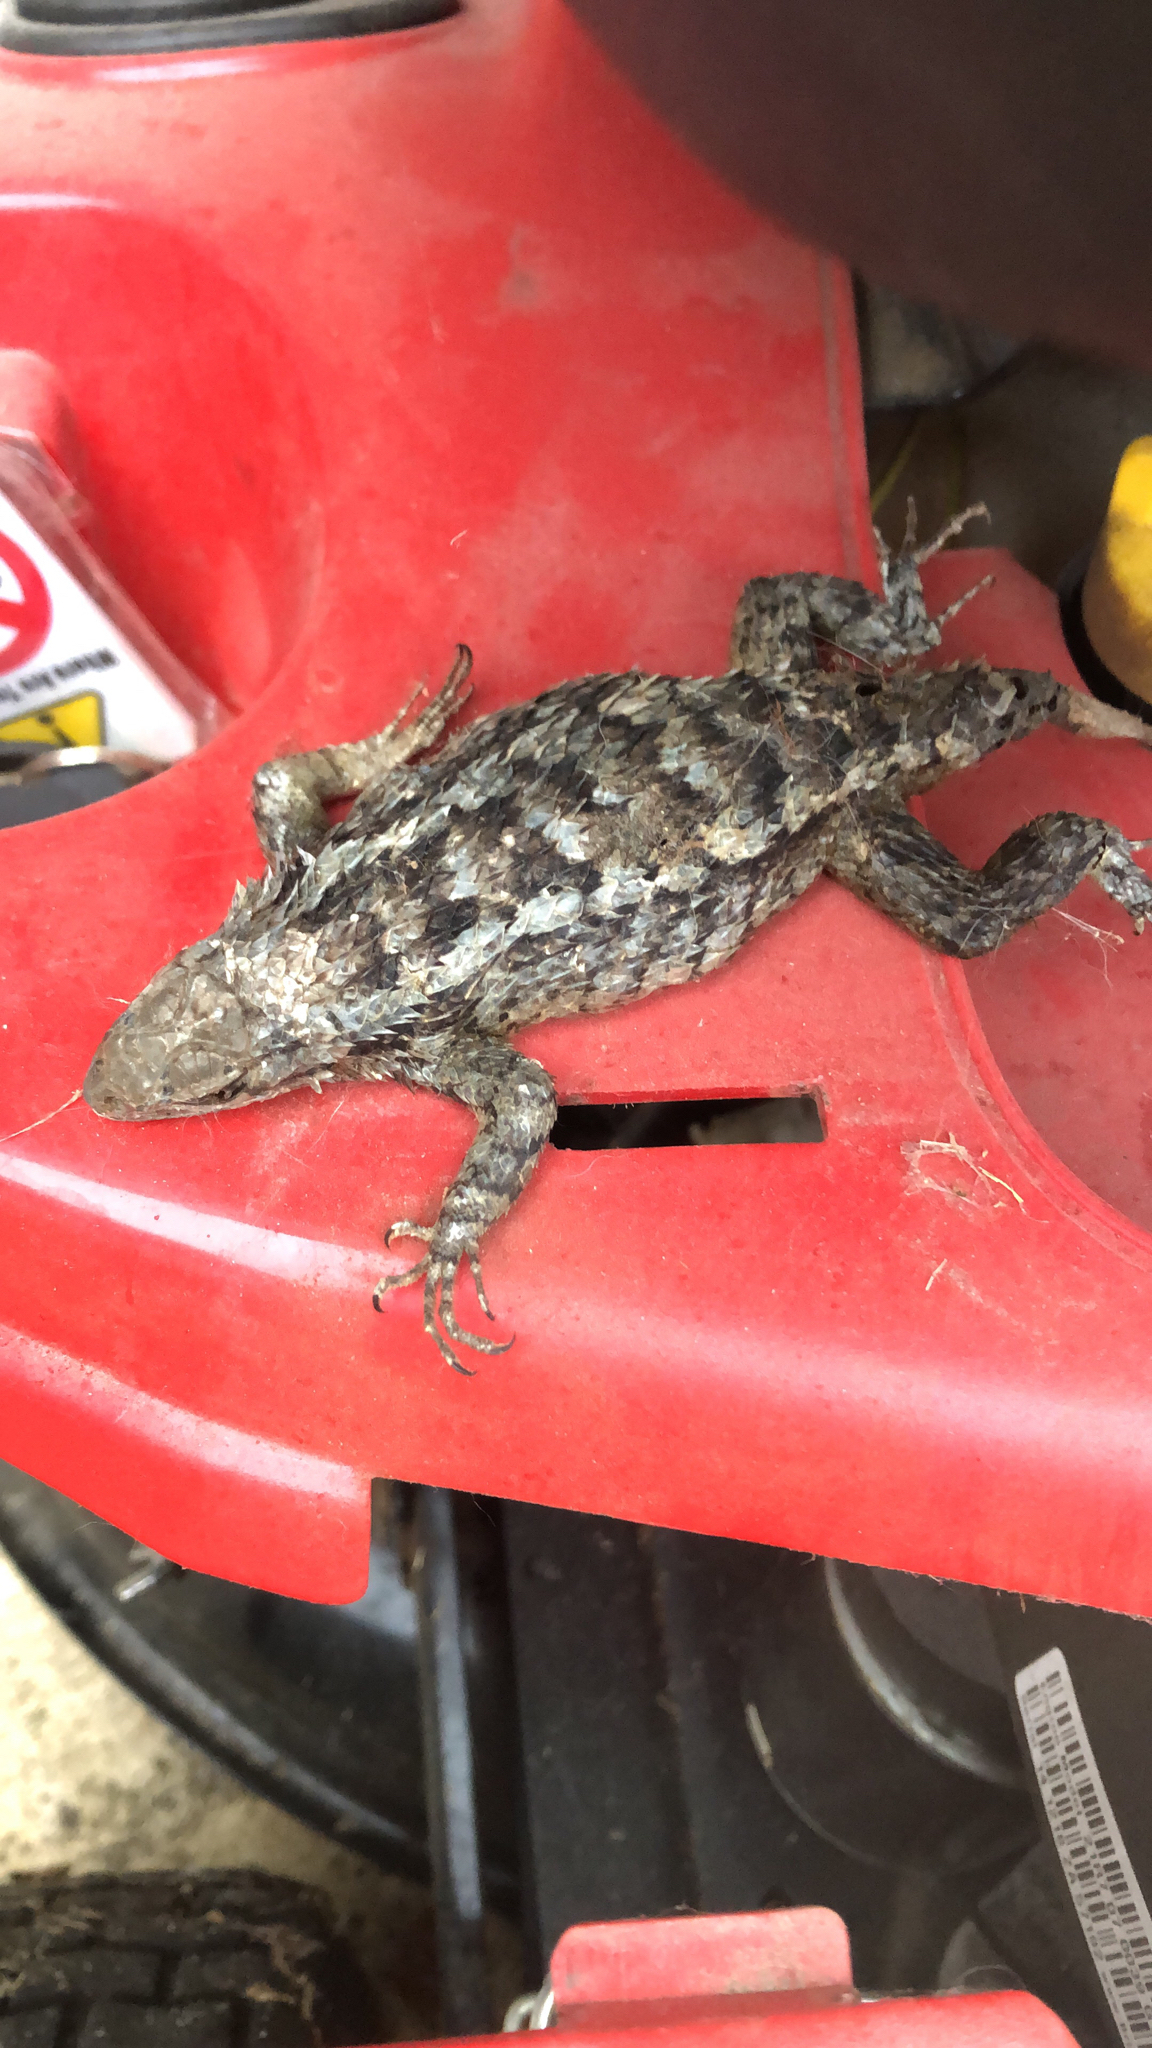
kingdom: Animalia
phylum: Chordata
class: Squamata
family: Phrynosomatidae
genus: Sceloporus
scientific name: Sceloporus olivaceus
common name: Texas spiny lizard
